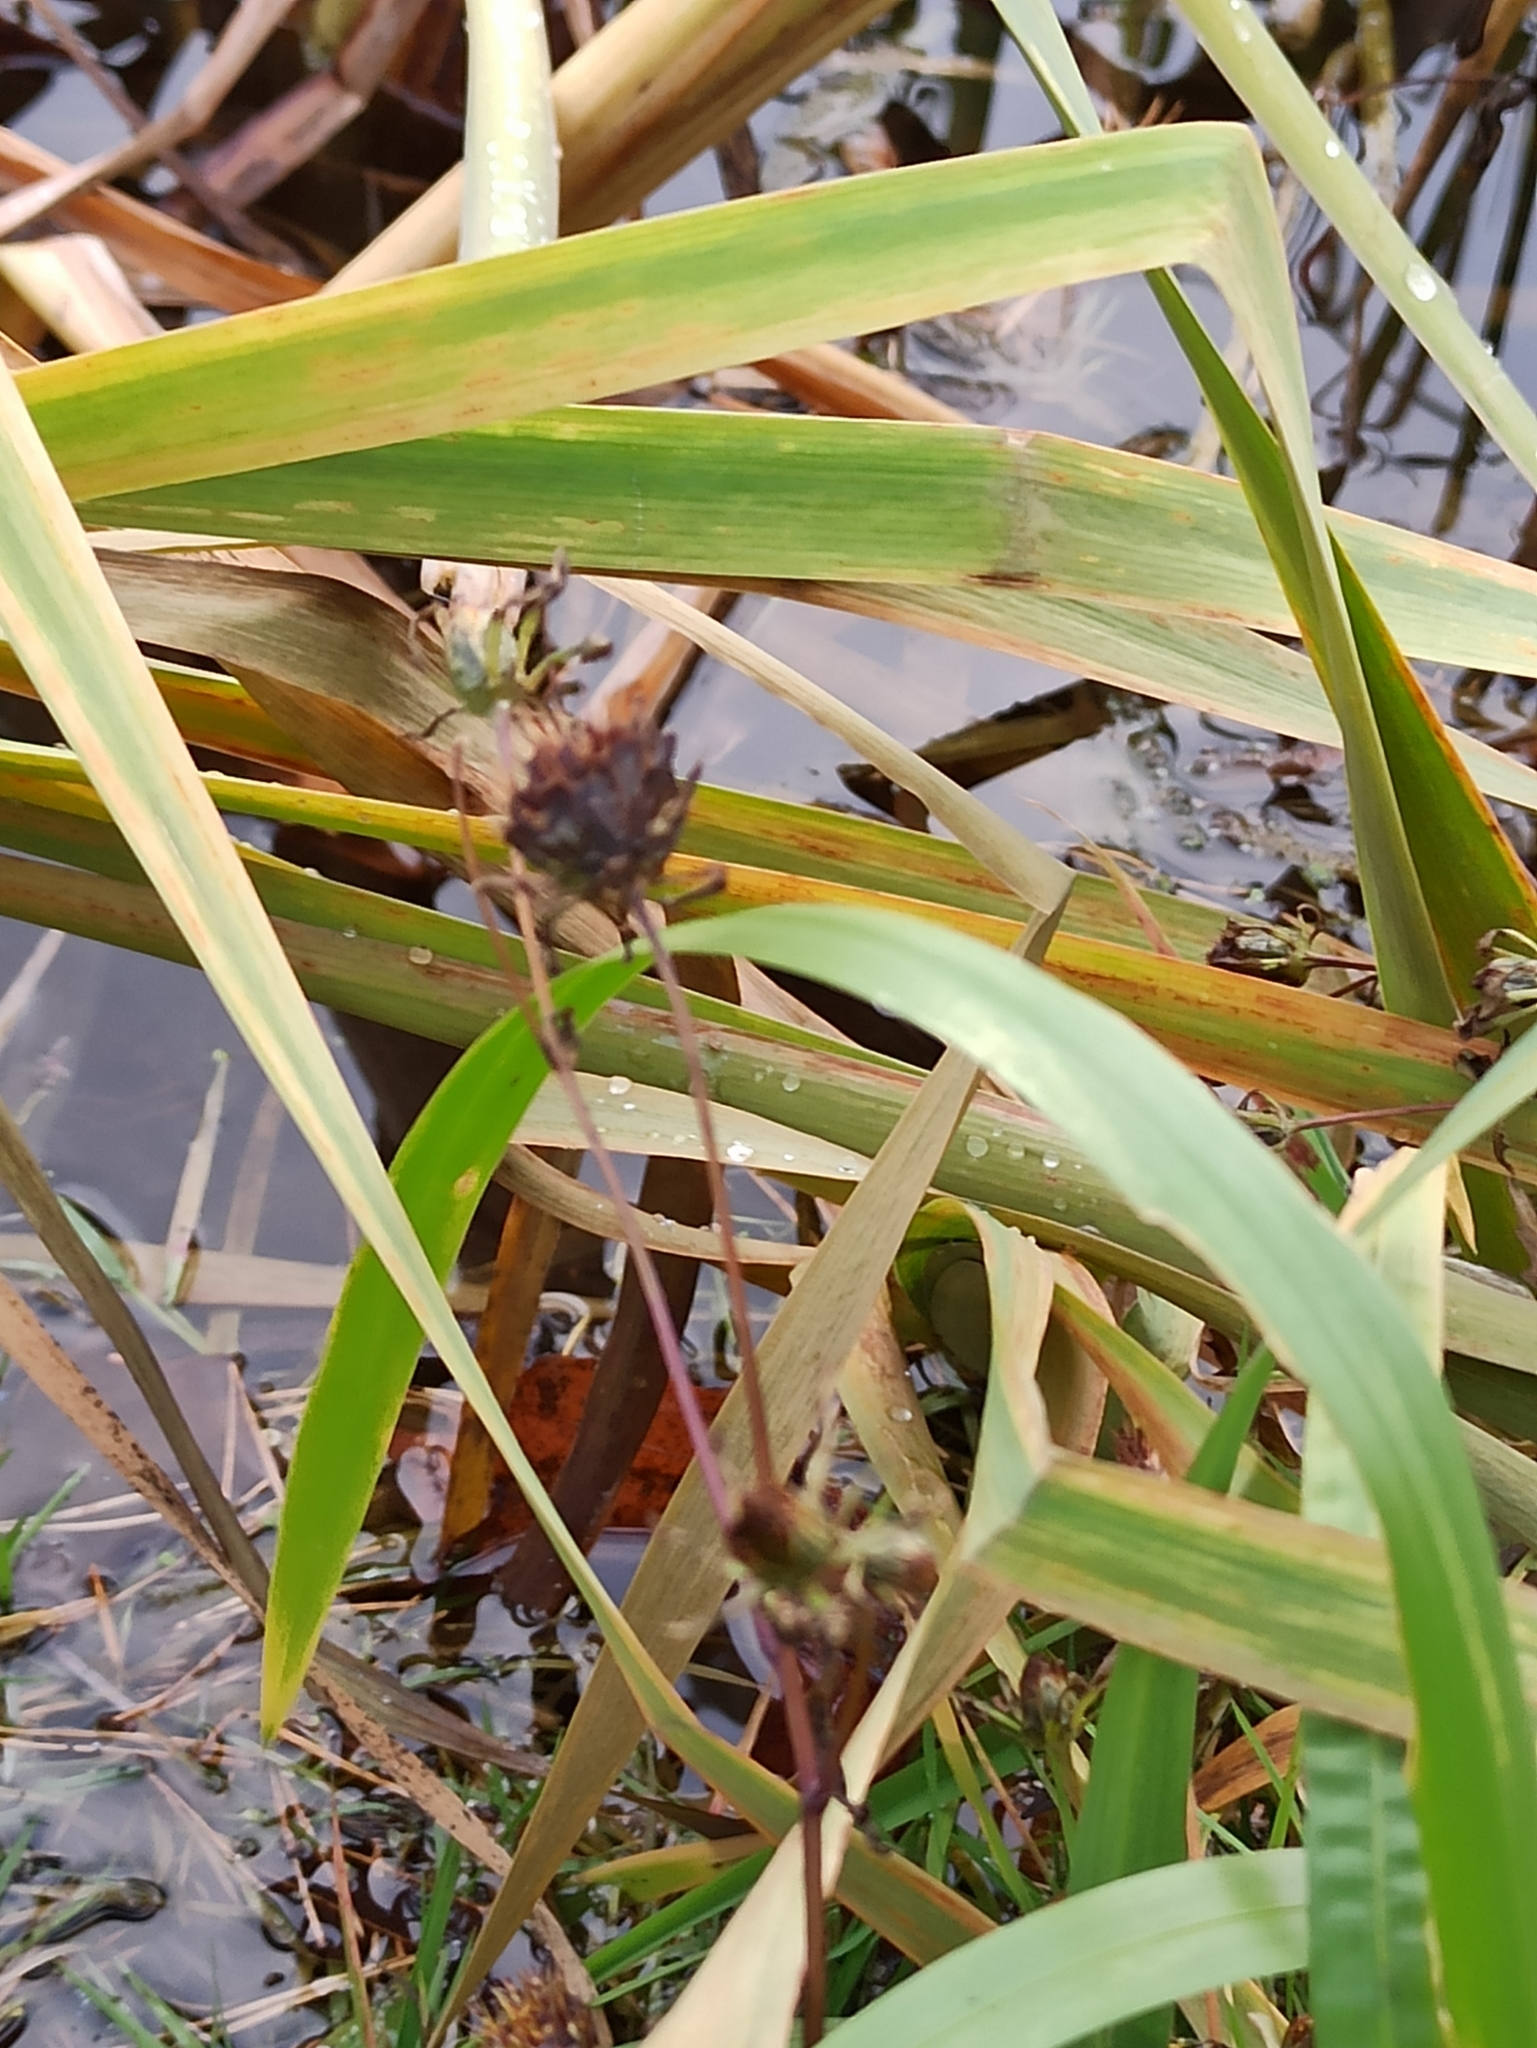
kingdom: Plantae
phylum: Tracheophyta
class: Magnoliopsida
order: Asterales
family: Asteraceae
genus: Bidens
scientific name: Bidens frondosa
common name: Beggarticks
